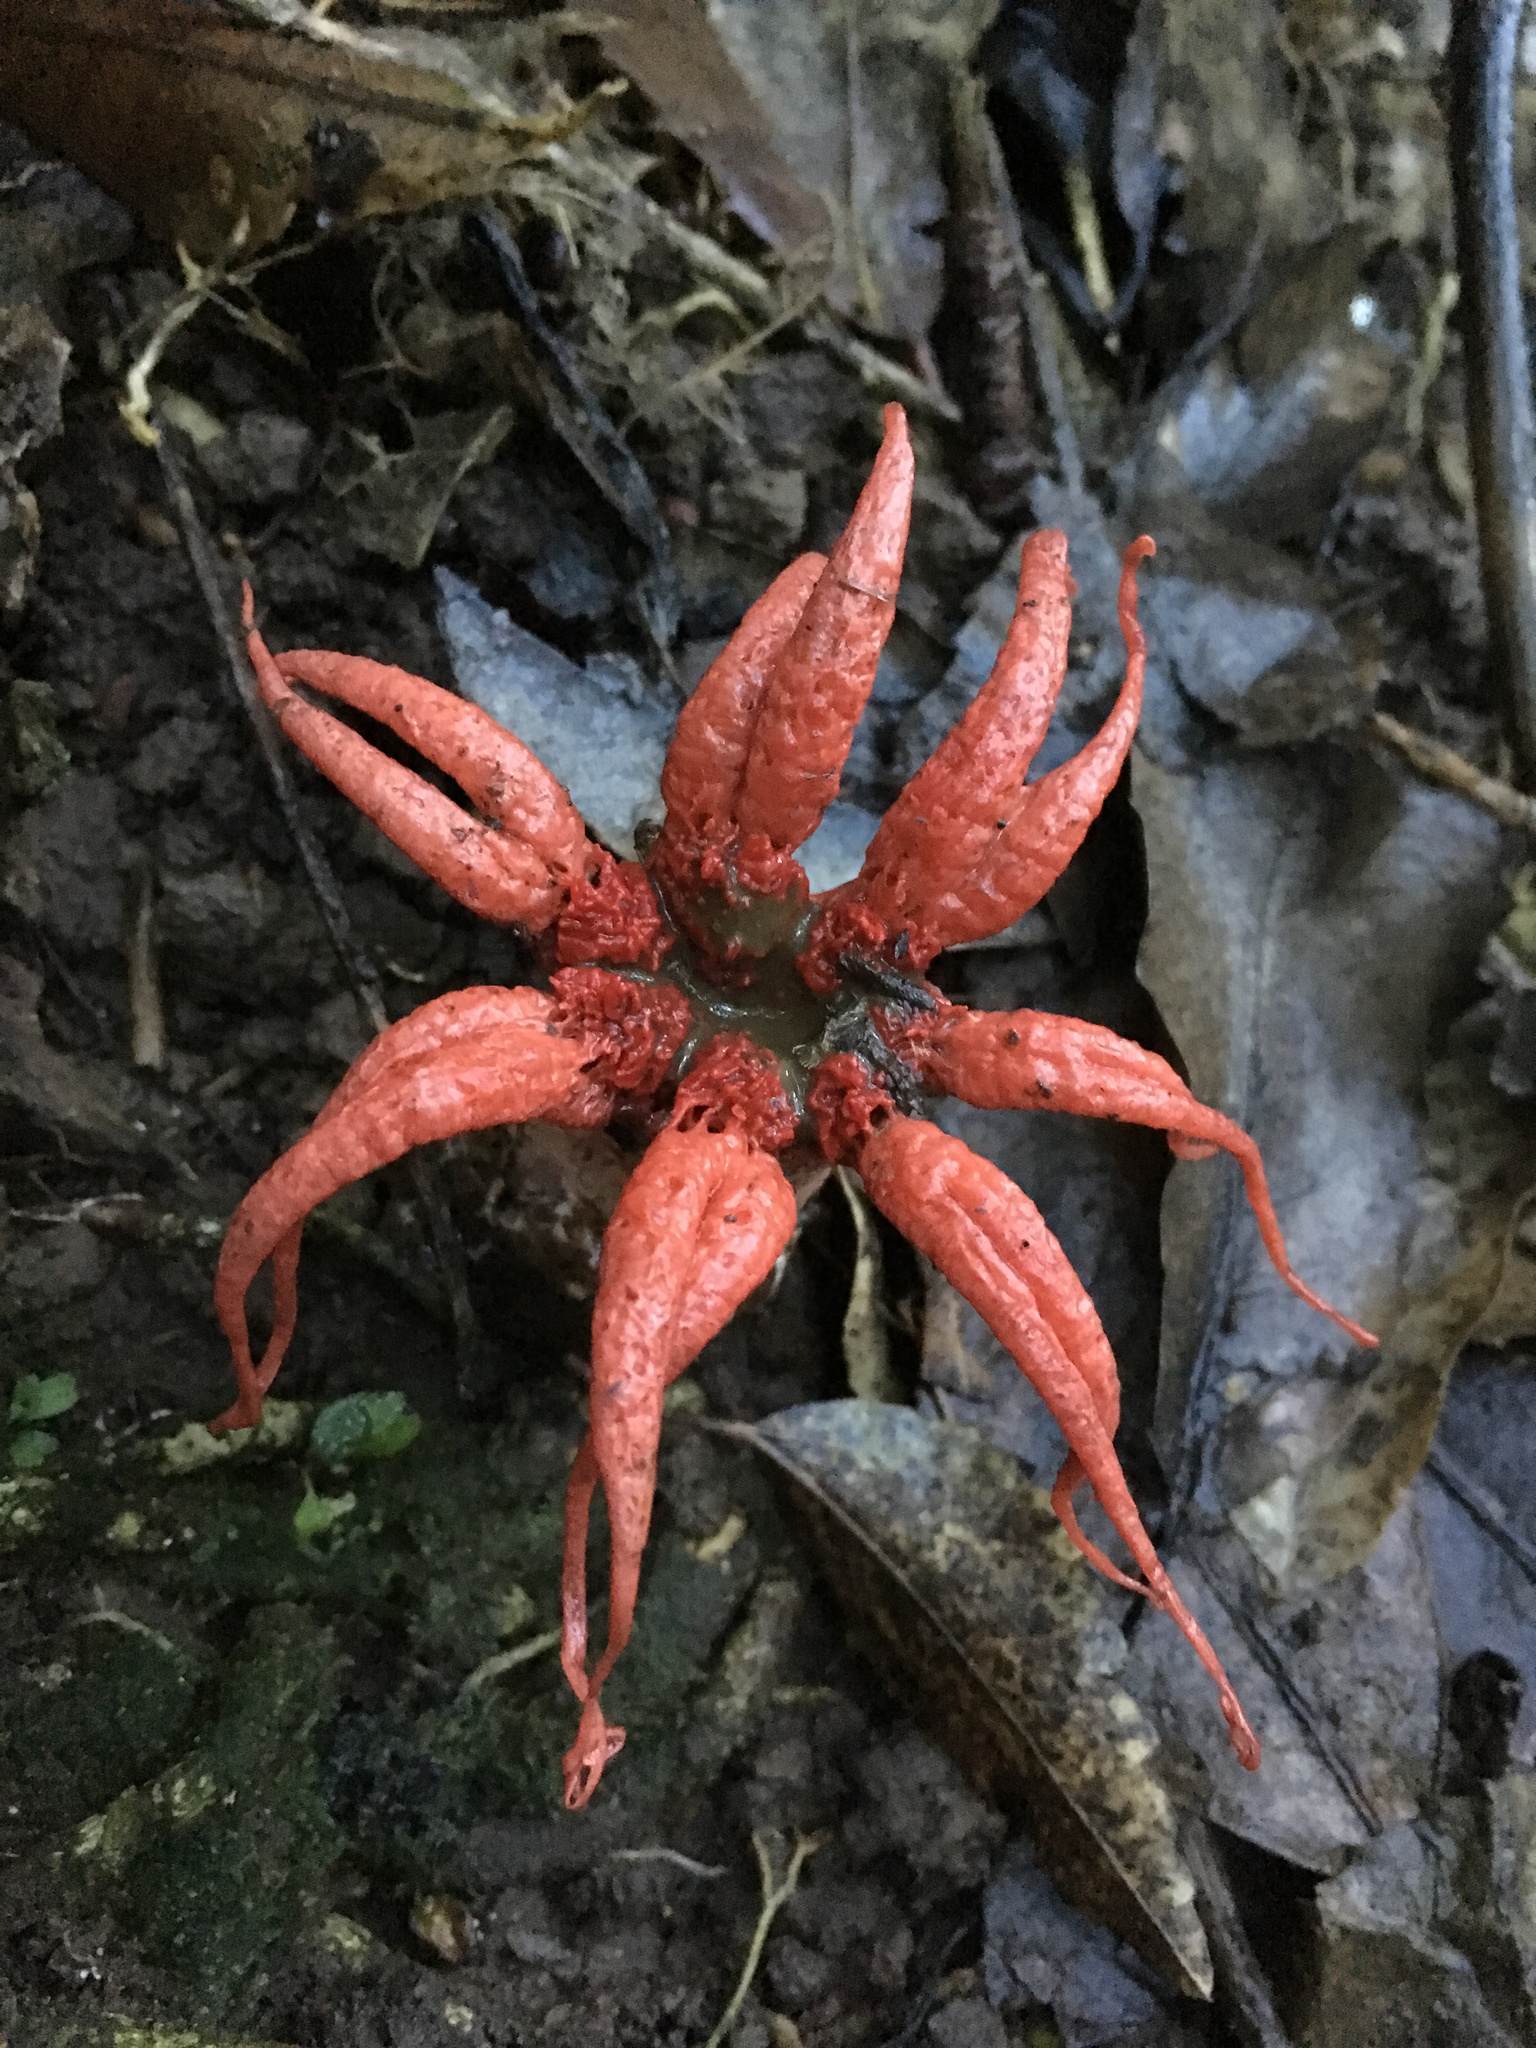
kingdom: Fungi
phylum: Basidiomycota
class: Agaricomycetes
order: Phallales
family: Phallaceae
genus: Aseroe
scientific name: Aseroe rubra
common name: Starfish fungus
